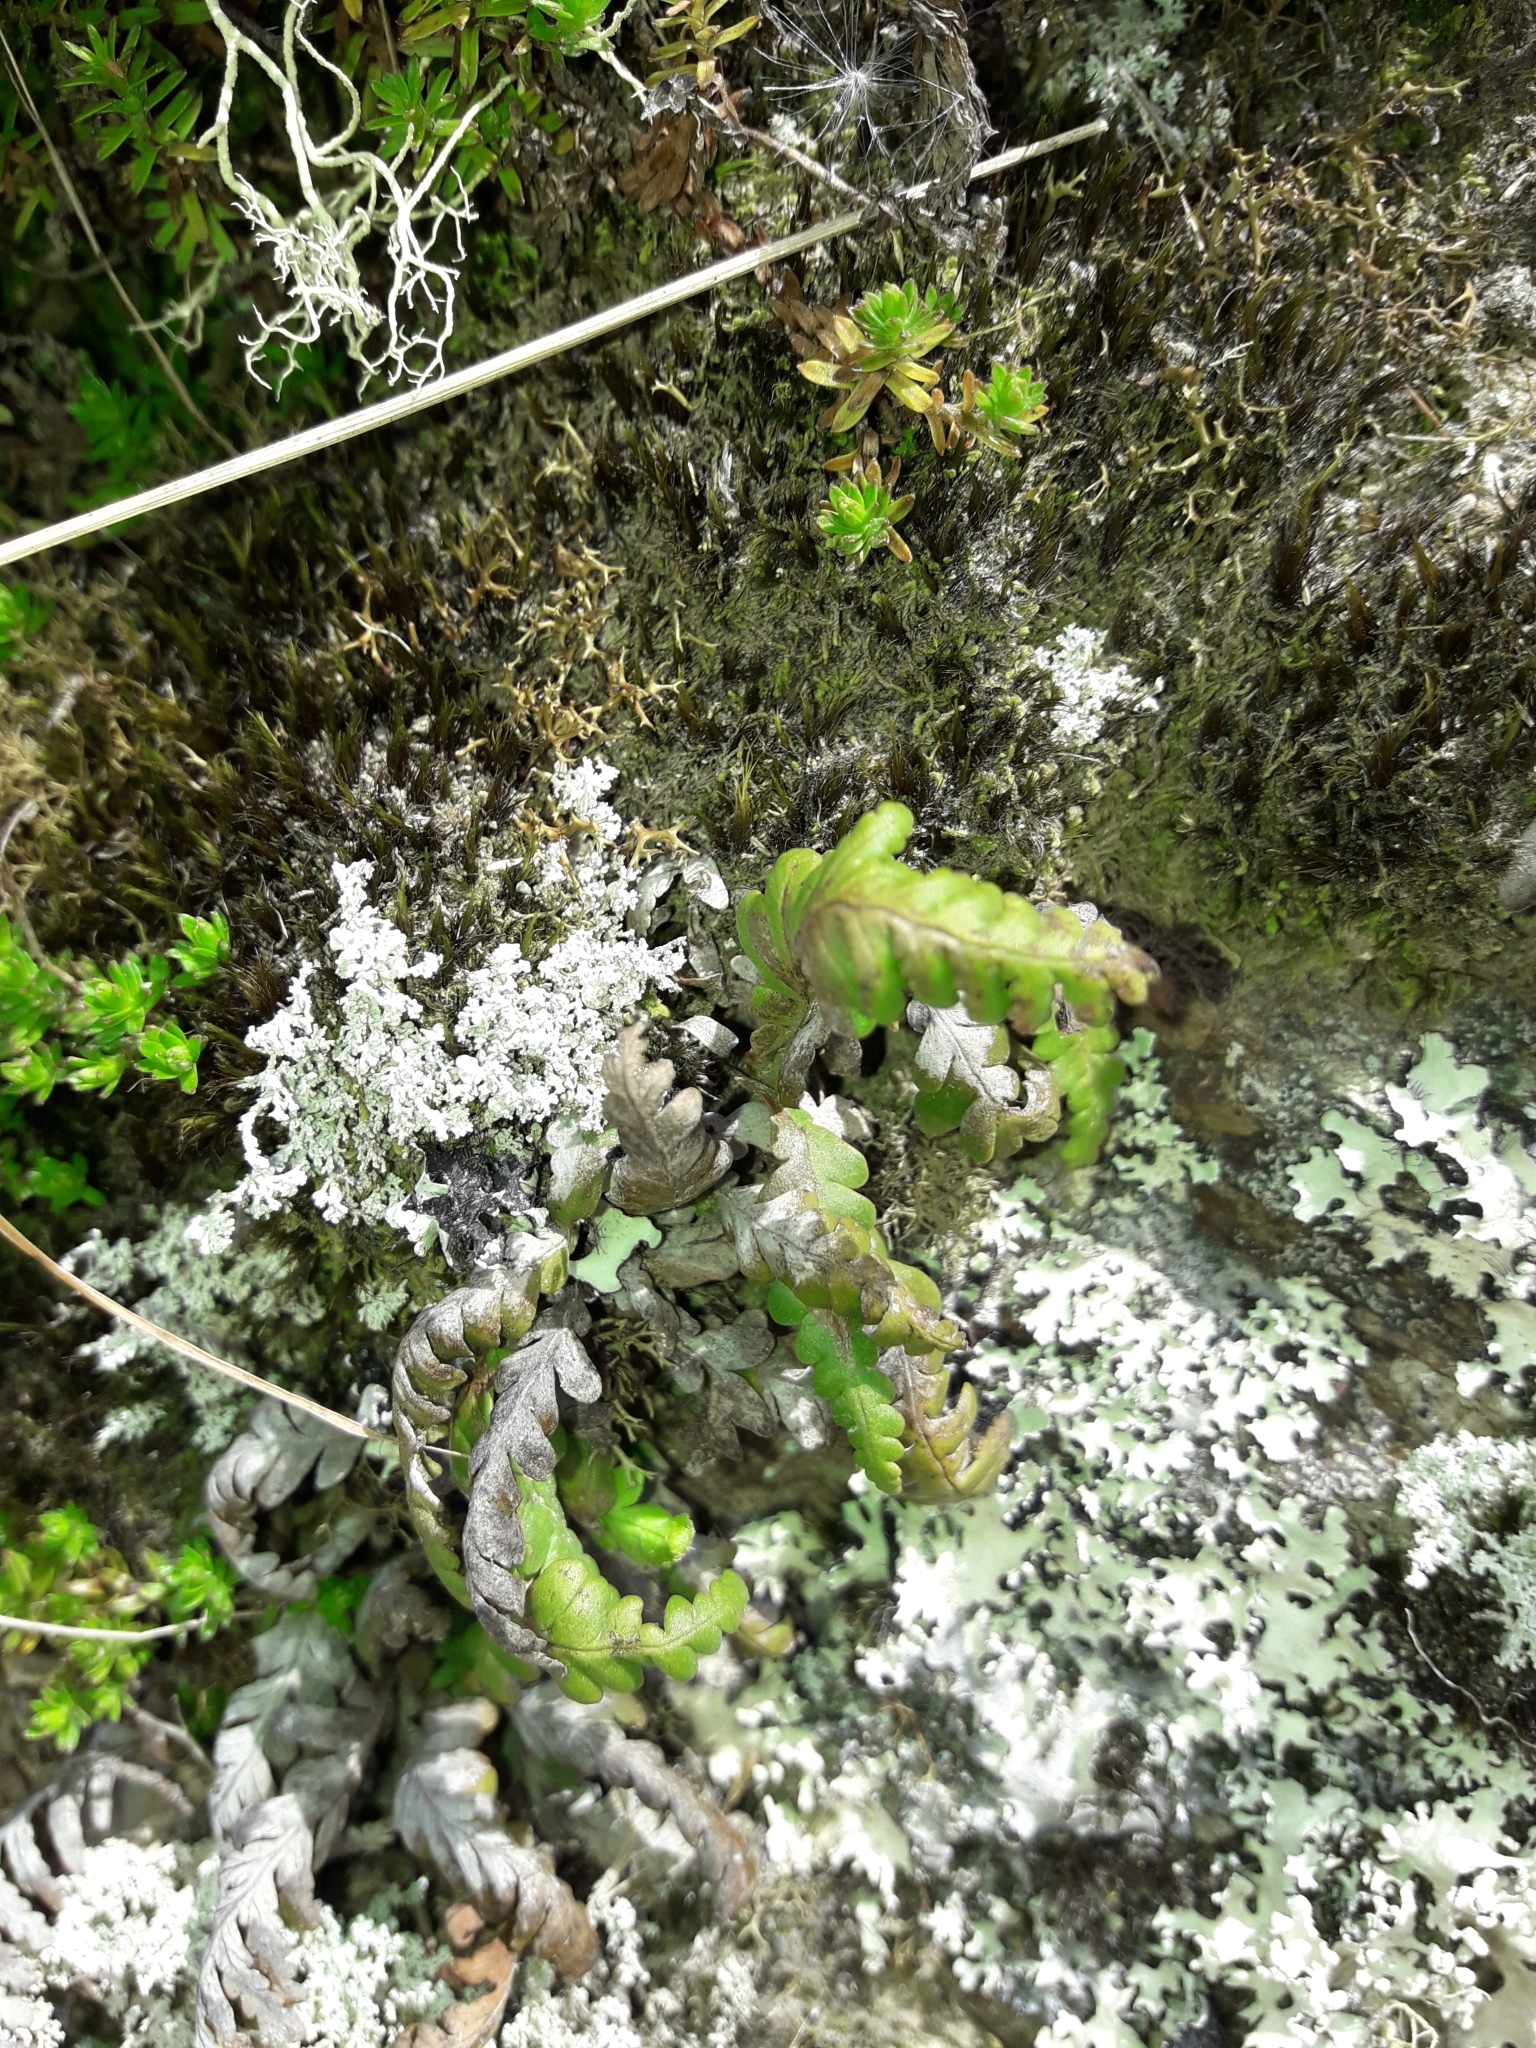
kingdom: Plantae
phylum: Tracheophyta
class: Polypodiopsida
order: Polypodiales
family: Polypodiaceae
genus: Notogrammitis
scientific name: Notogrammitis heterophylla
